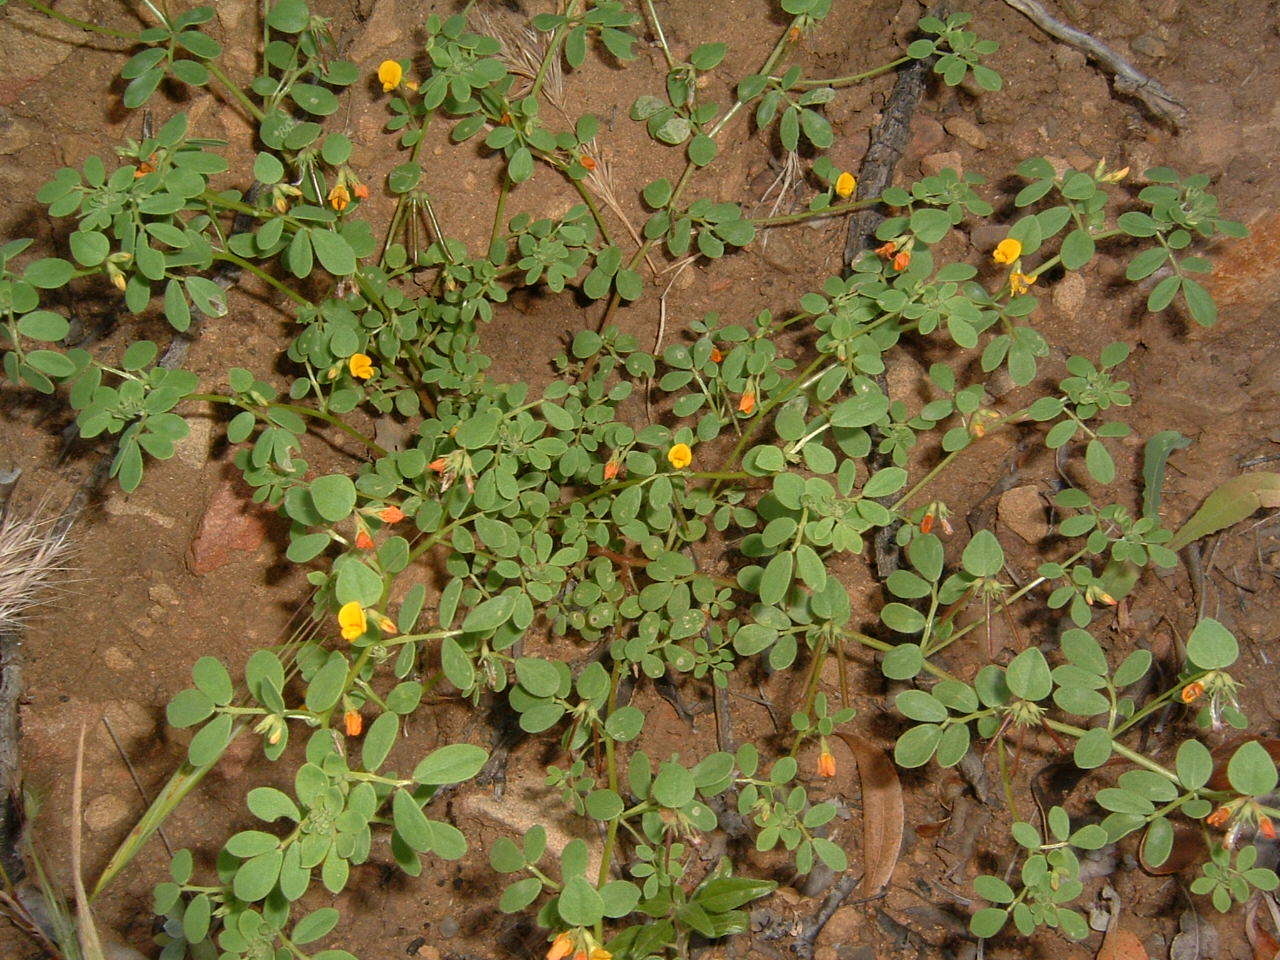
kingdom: Plantae
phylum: Tracheophyta
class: Magnoliopsida
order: Fabales
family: Fabaceae
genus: Acmispon
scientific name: Acmispon maritimus
